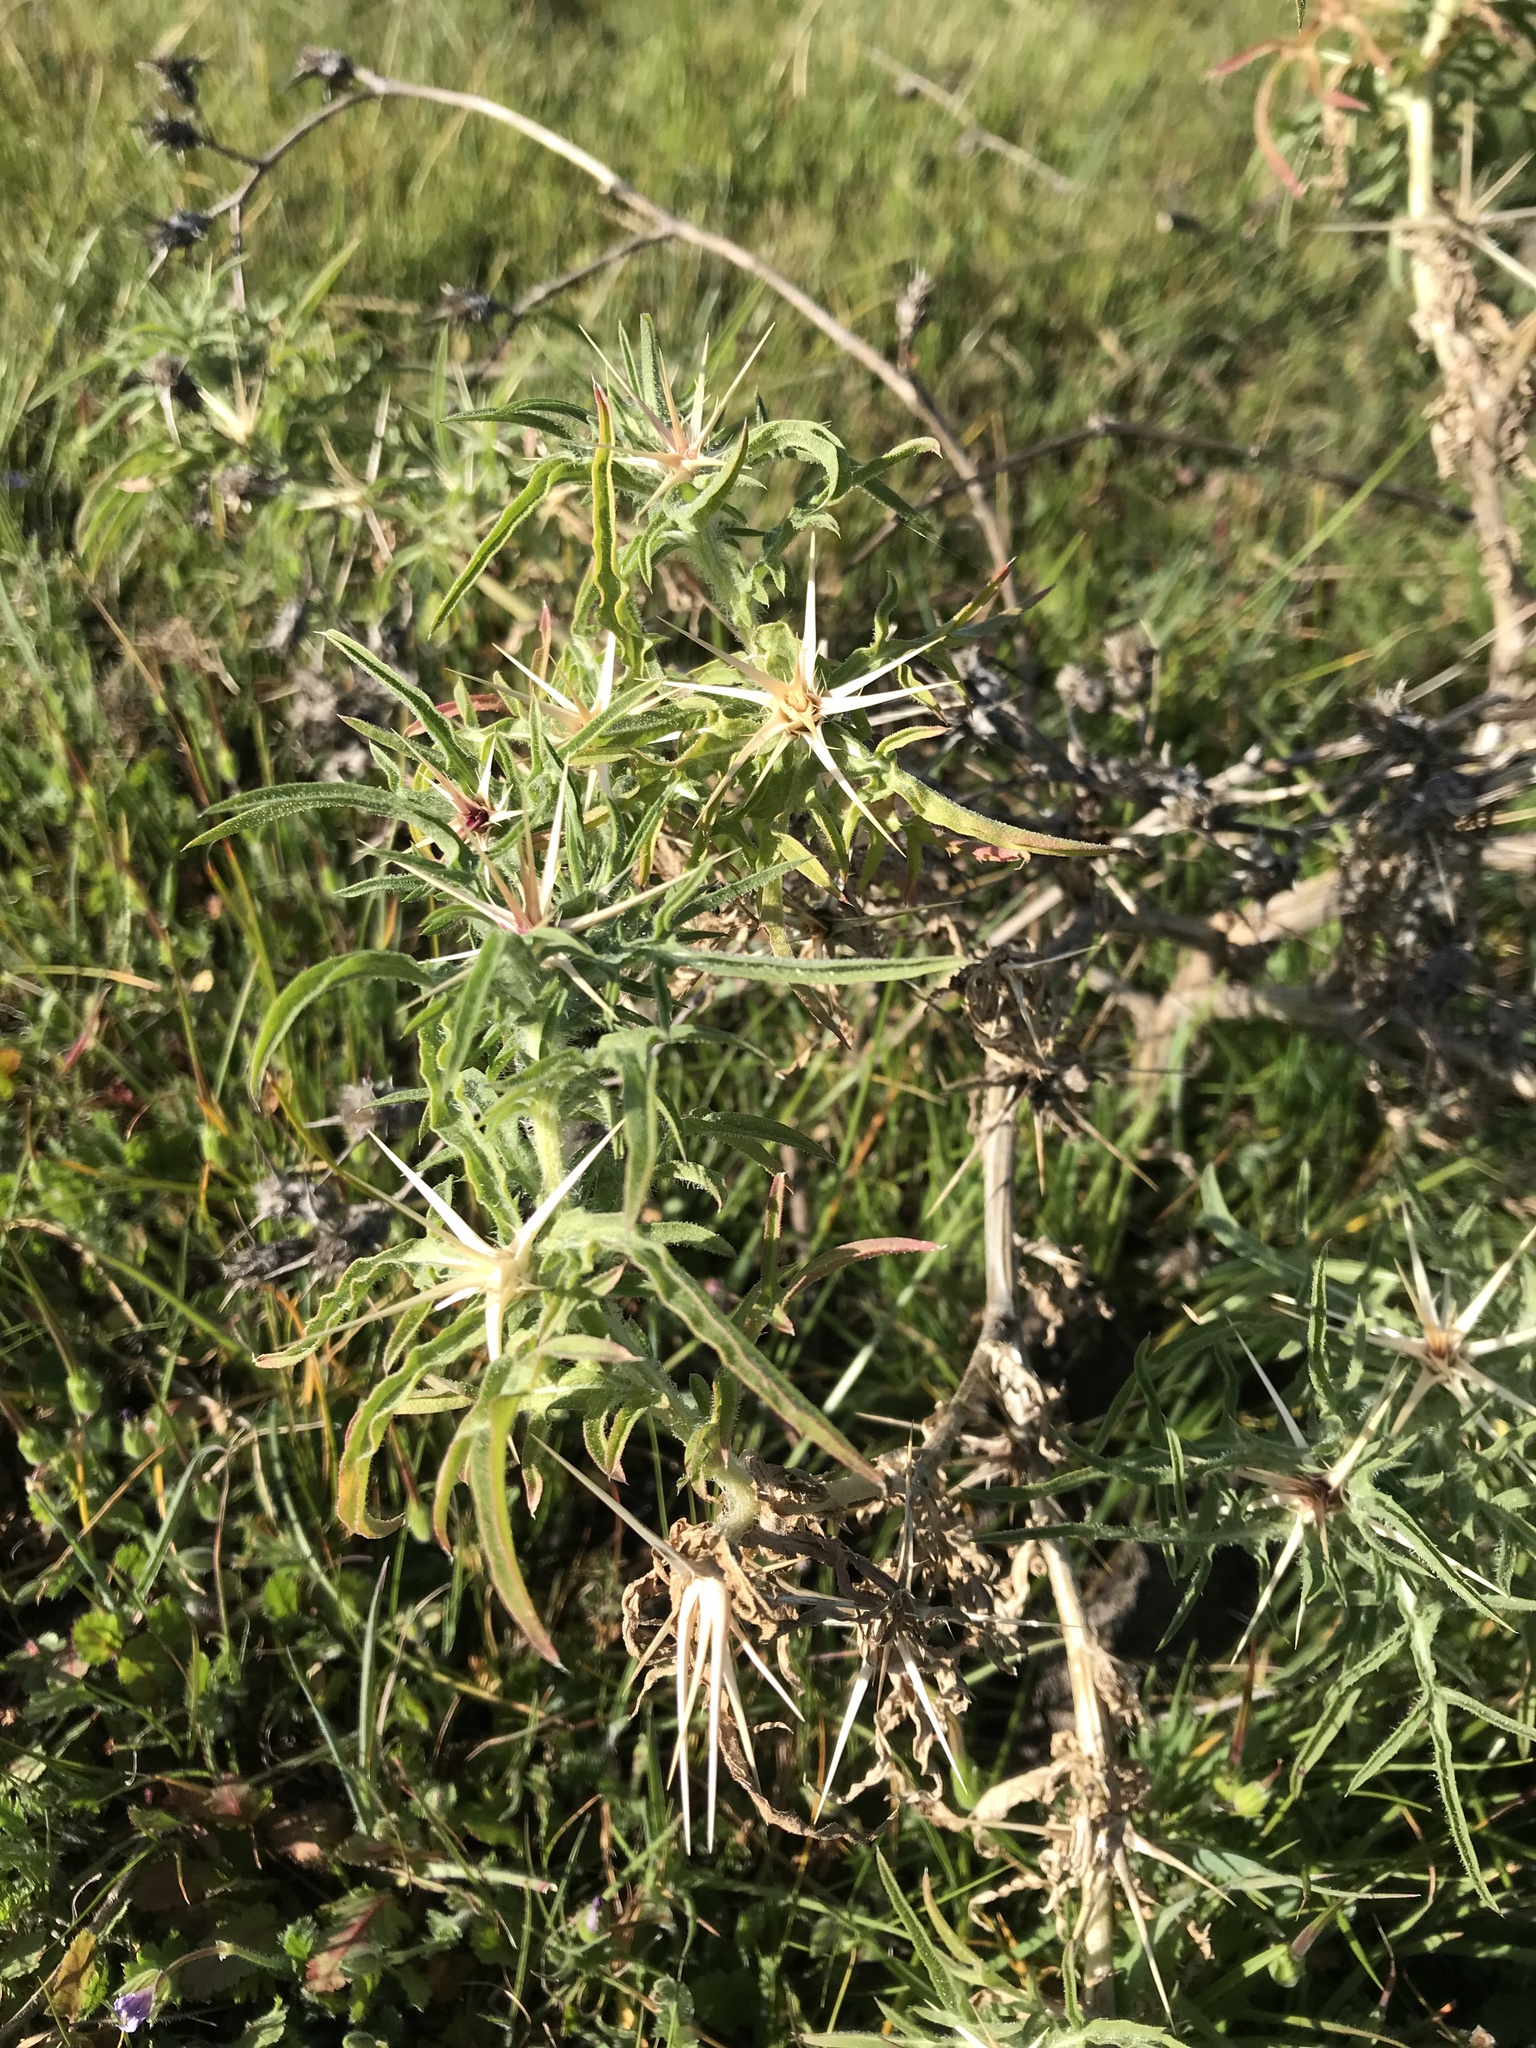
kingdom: Plantae
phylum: Tracheophyta
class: Magnoliopsida
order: Asterales
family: Asteraceae
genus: Centaurea
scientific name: Centaurea calcitrapa
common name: Red star-thistle
